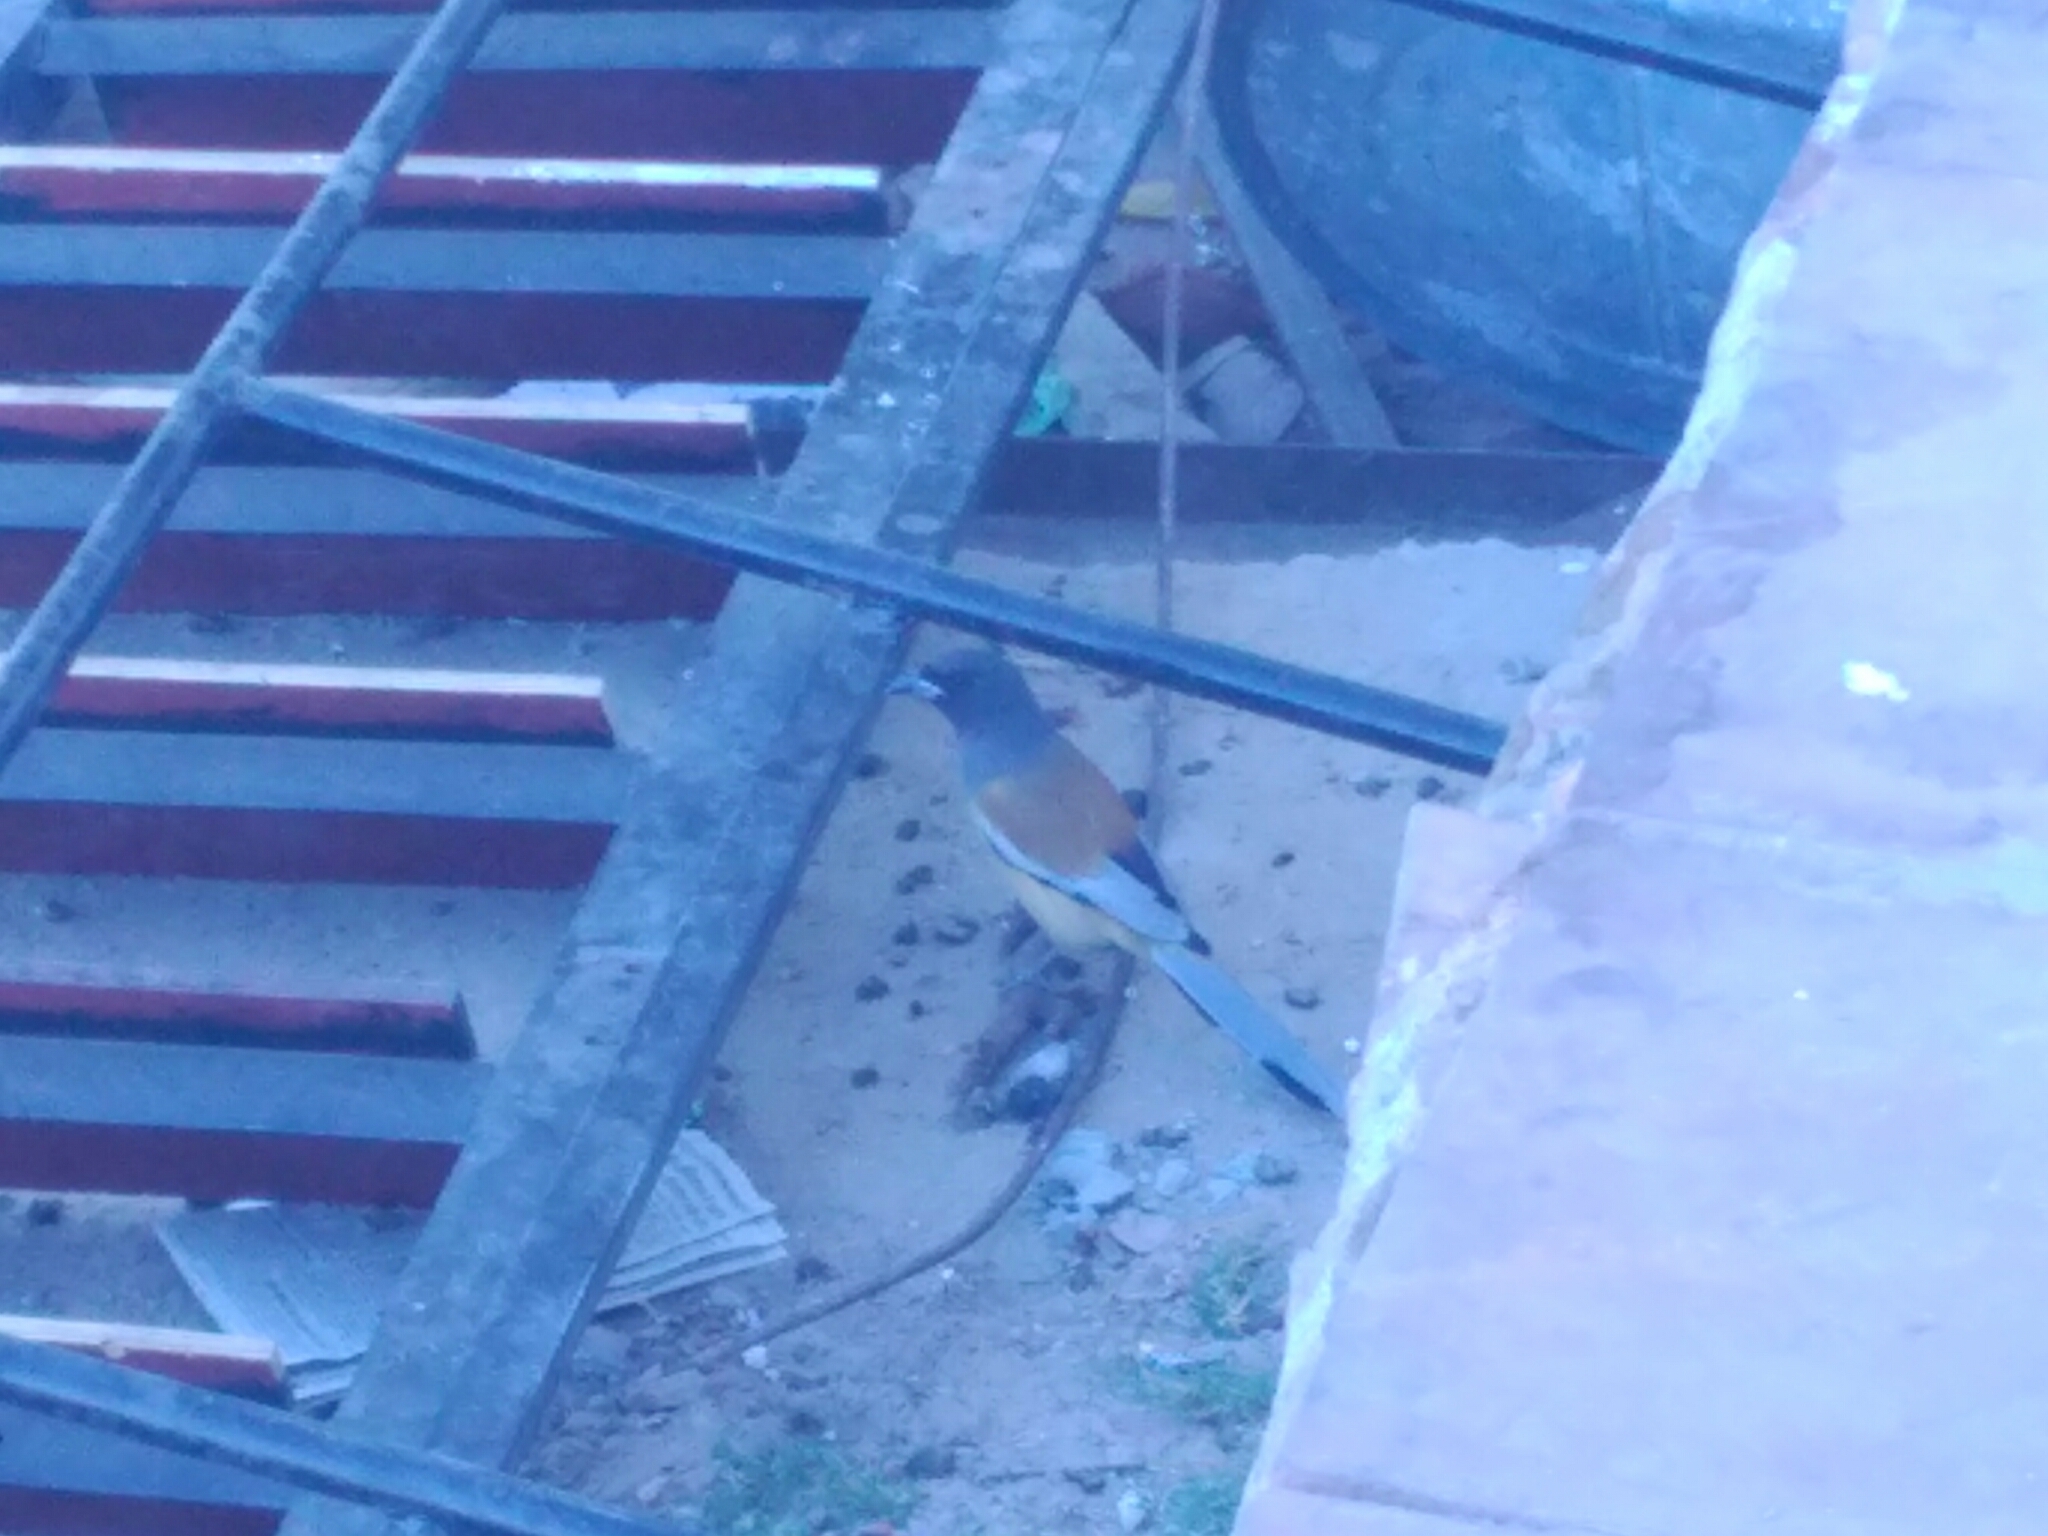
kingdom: Animalia
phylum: Chordata
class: Aves
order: Passeriformes
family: Corvidae
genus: Dendrocitta
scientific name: Dendrocitta vagabunda
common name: Rufous treepie
